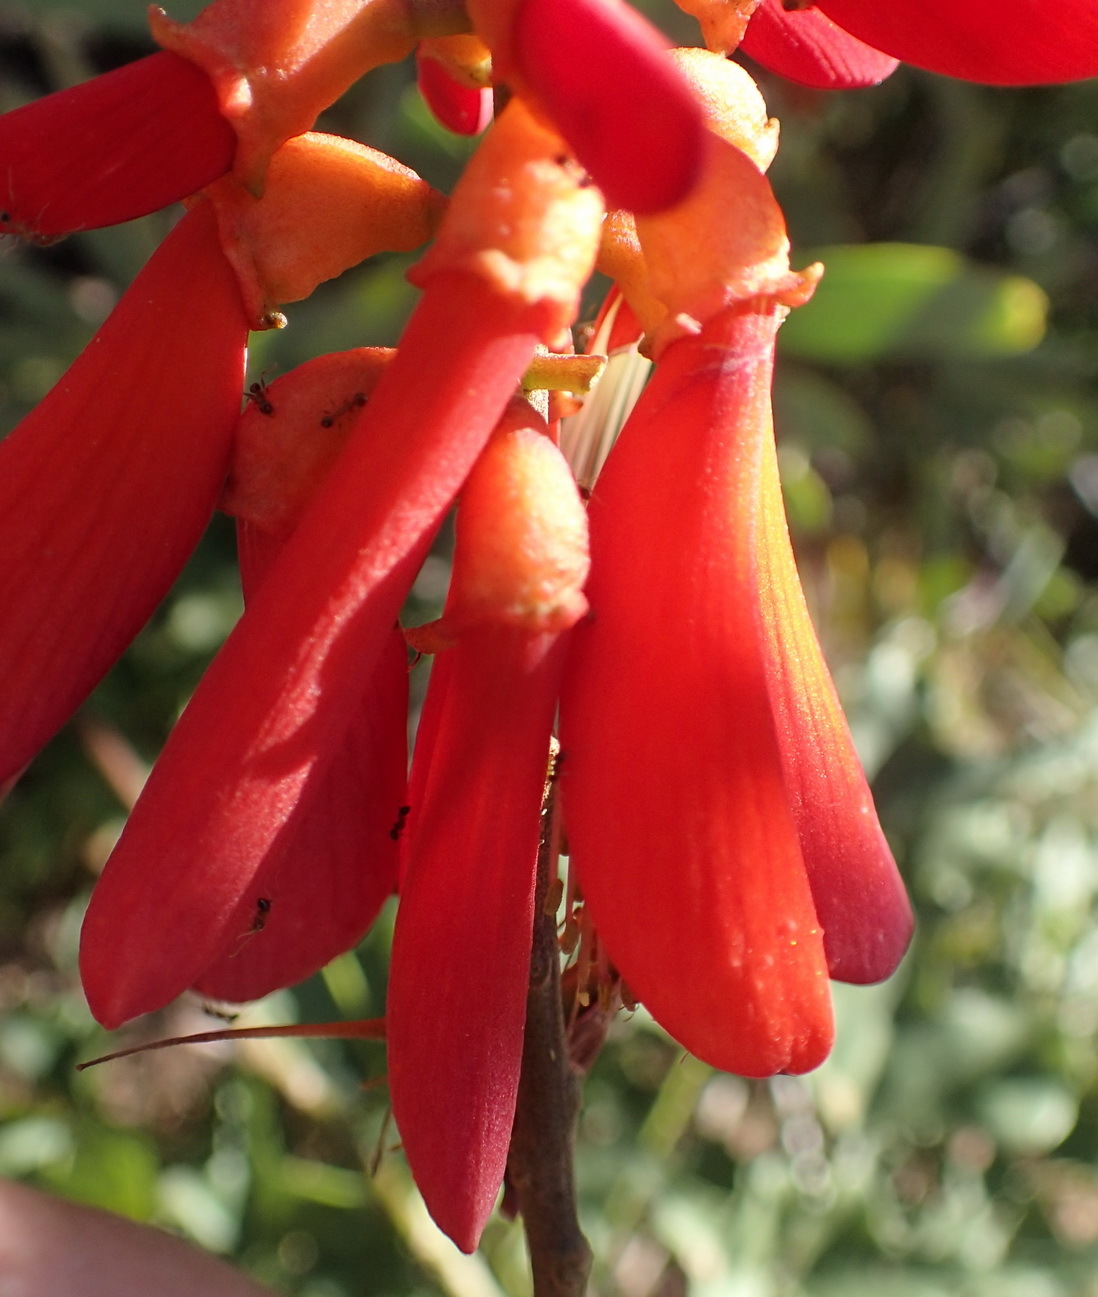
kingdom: Plantae
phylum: Tracheophyta
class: Magnoliopsida
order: Fabales
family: Fabaceae
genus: Erythrina
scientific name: Erythrina humeana
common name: Dwarf coral tree
